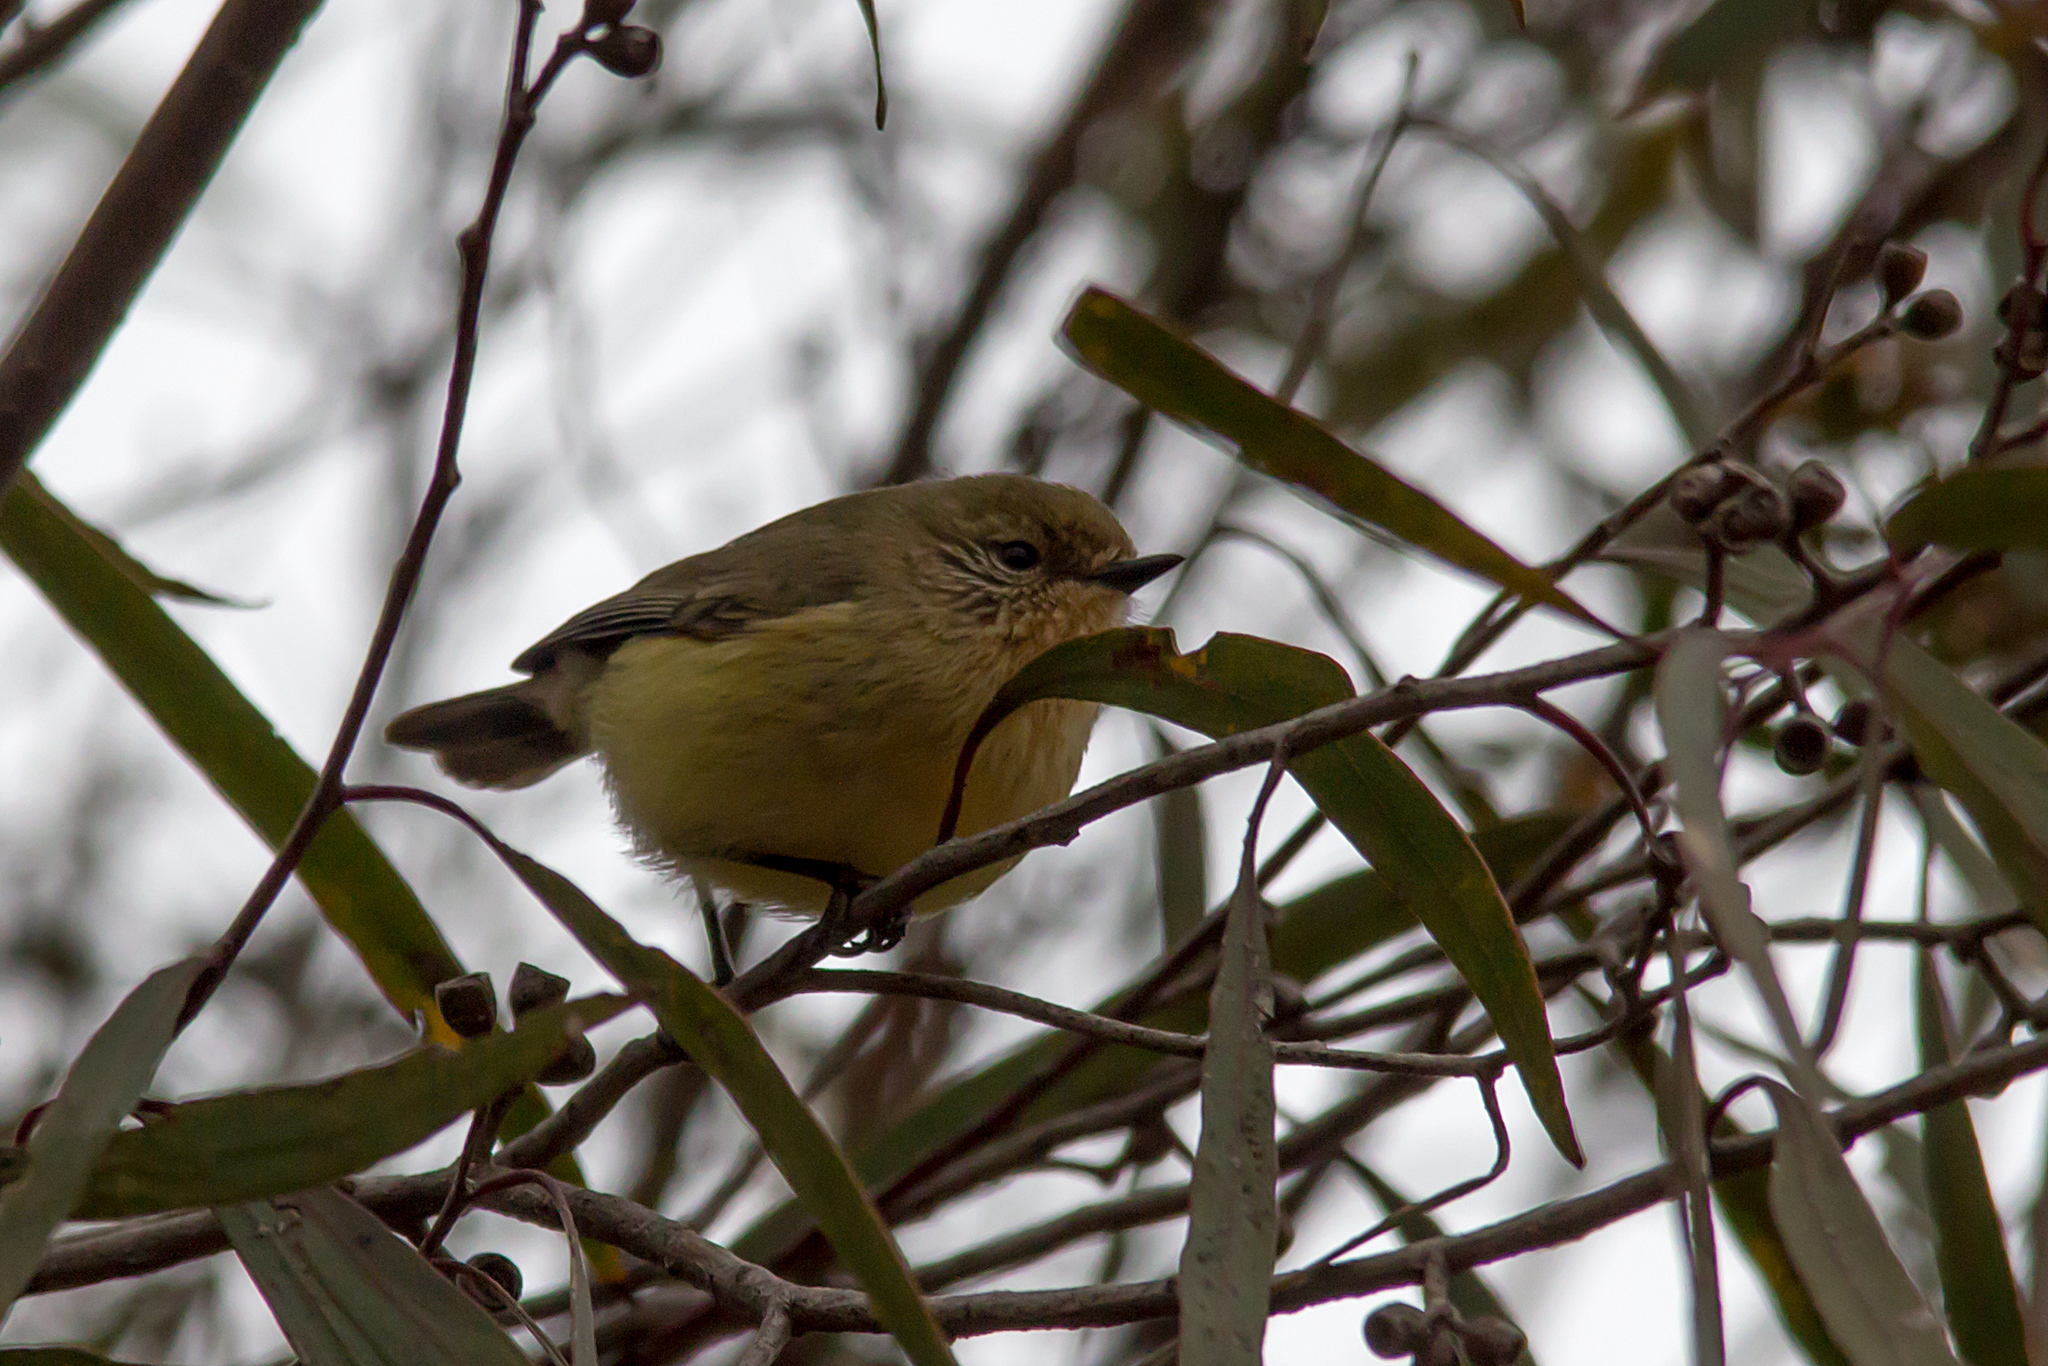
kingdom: Animalia
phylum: Chordata
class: Aves
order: Passeriformes
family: Acanthizidae
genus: Acanthiza
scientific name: Acanthiza nana
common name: Yellow thornbill
